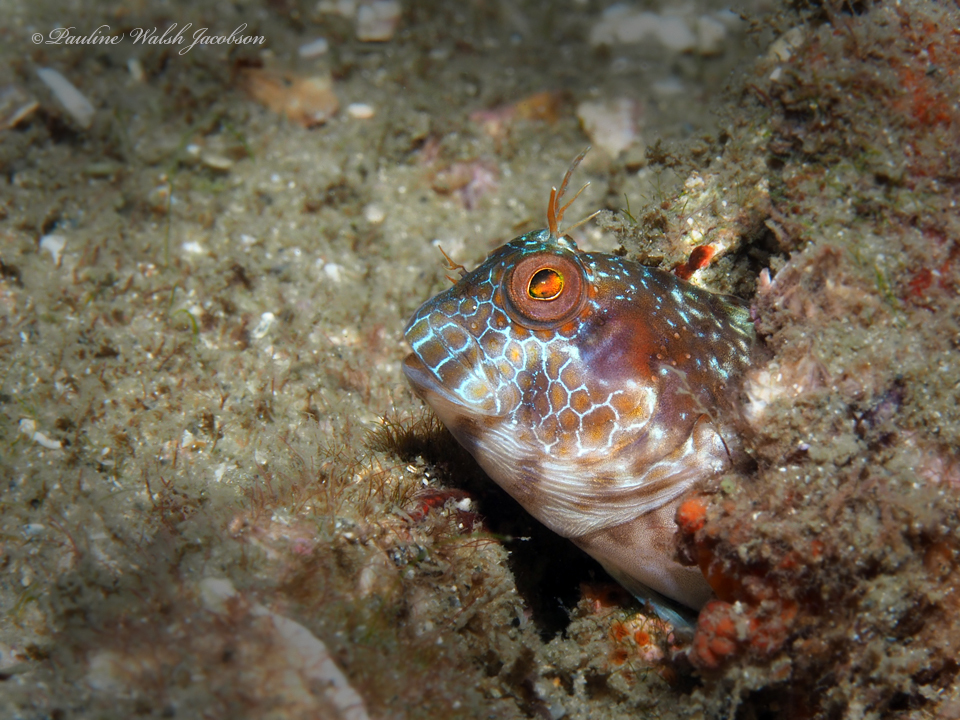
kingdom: Animalia
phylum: Chordata
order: Perciformes
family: Blenniidae
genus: Parablennius
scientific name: Parablennius marmoreus
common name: Seaweed blenny
